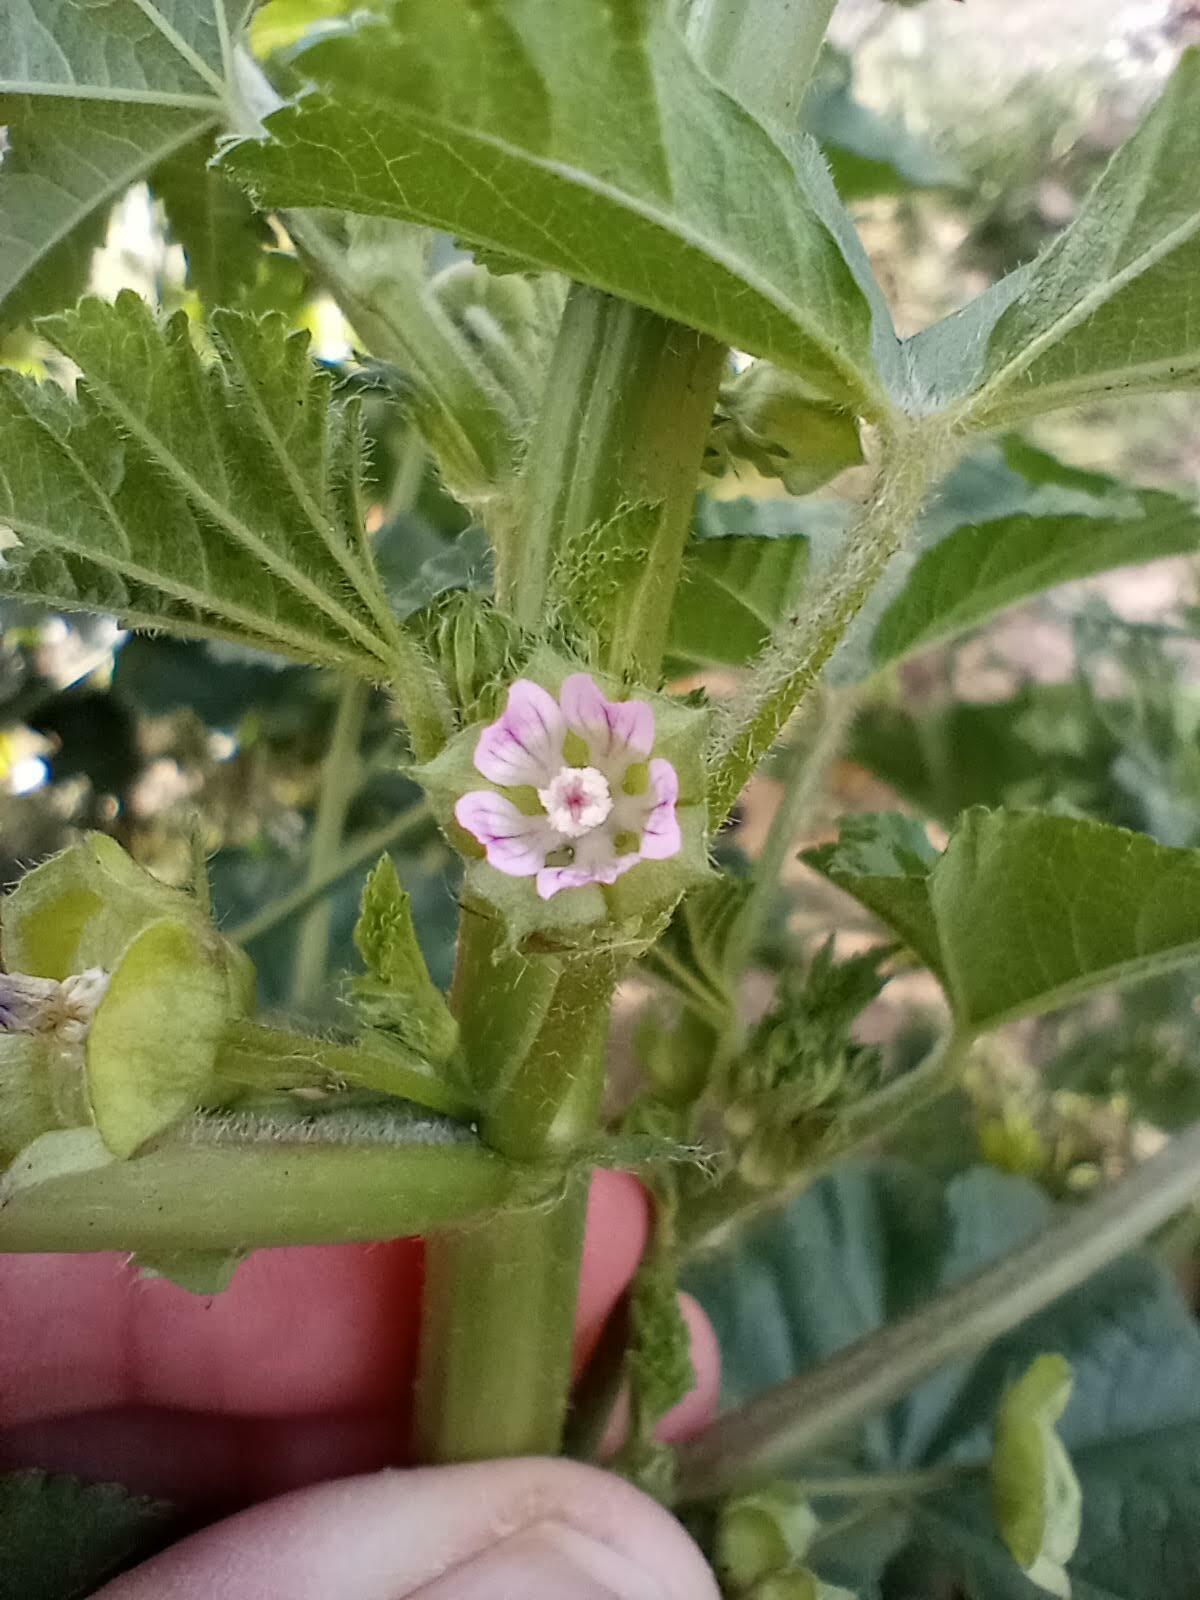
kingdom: Plantae
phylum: Tracheophyta
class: Magnoliopsida
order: Malvales
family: Malvaceae
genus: Malva
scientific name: Malva parviflora
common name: Least mallow
